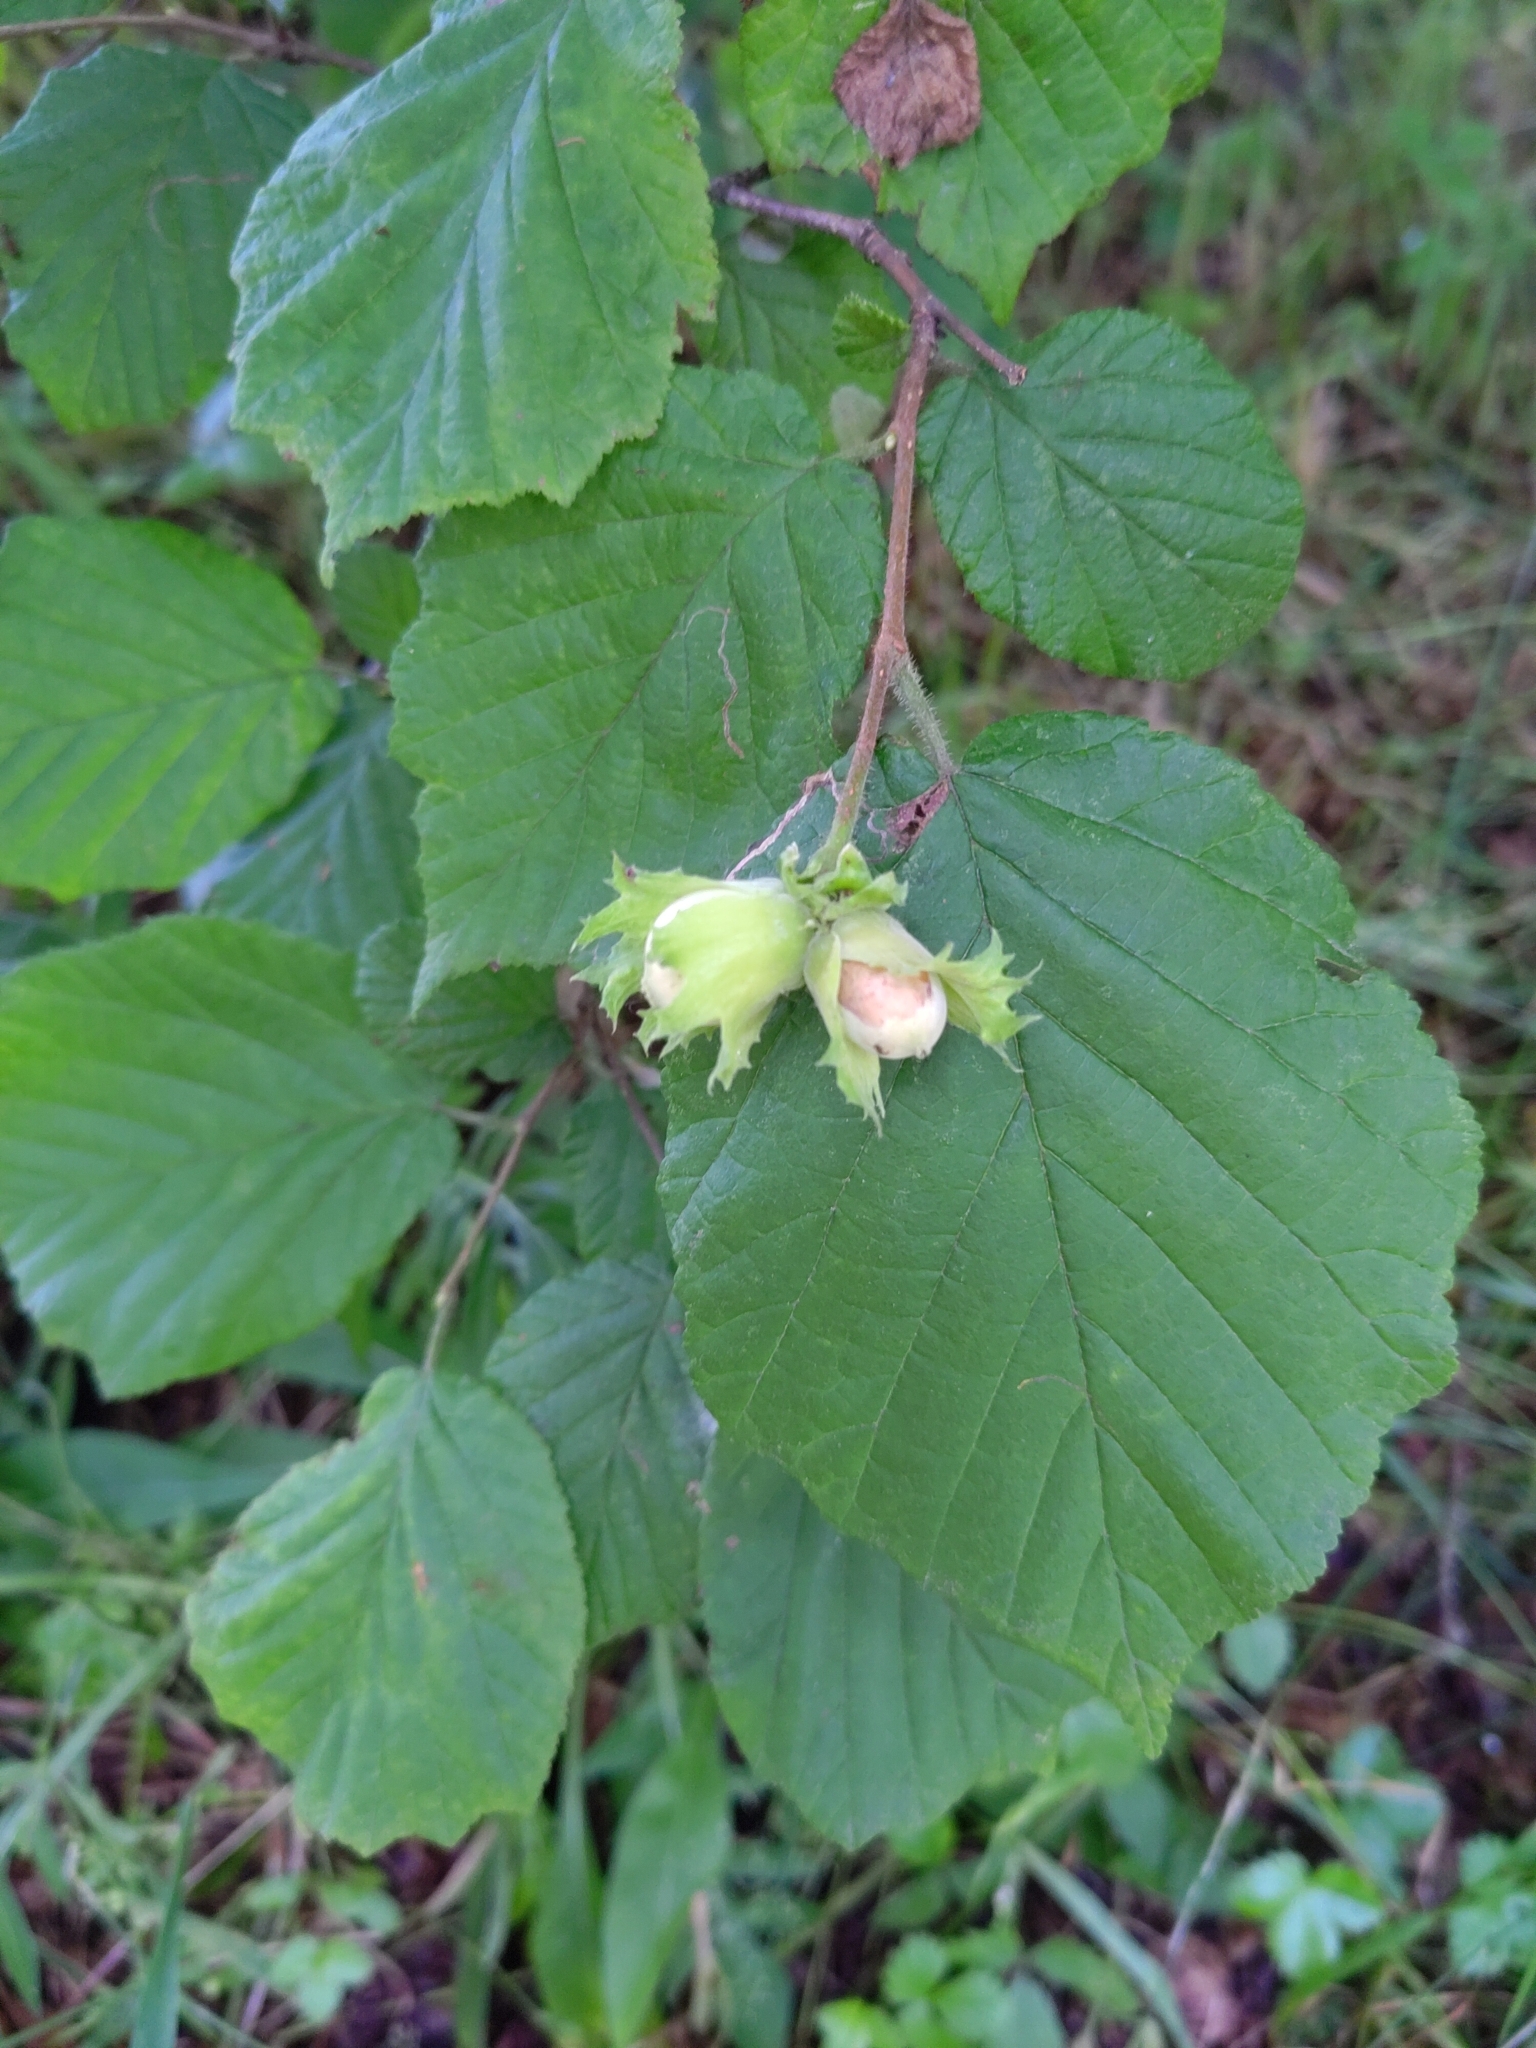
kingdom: Plantae
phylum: Tracheophyta
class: Magnoliopsida
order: Fagales
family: Betulaceae
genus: Corylus
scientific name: Corylus avellana
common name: European hazel
